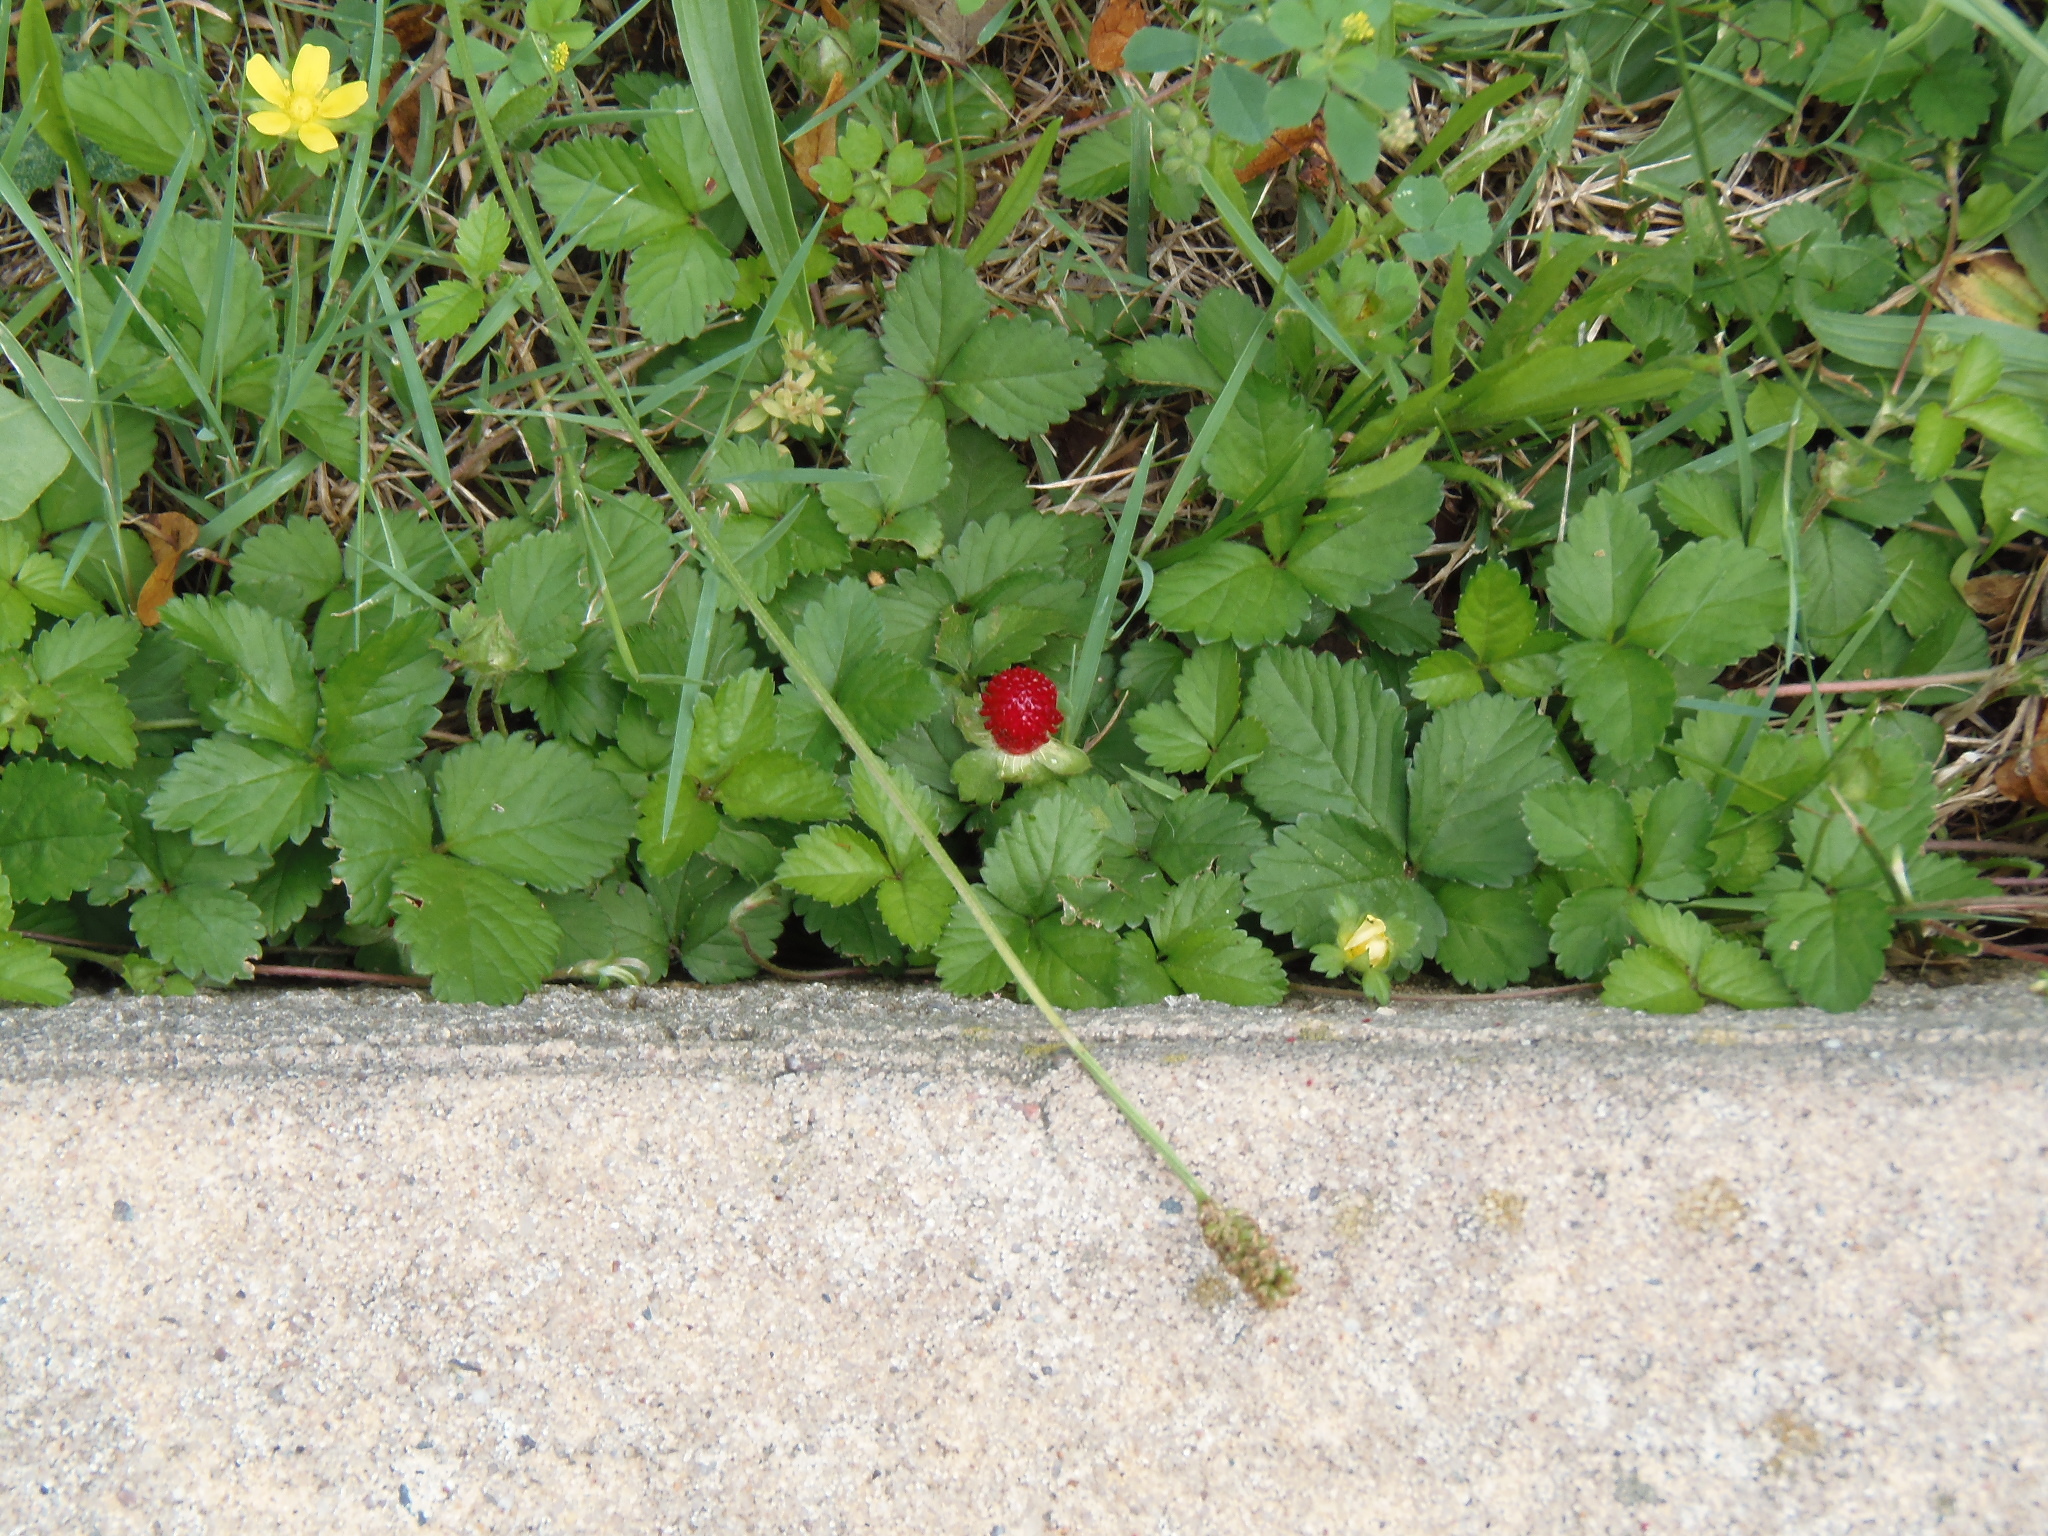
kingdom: Plantae
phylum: Tracheophyta
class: Magnoliopsida
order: Rosales
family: Rosaceae
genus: Potentilla
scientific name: Potentilla indica
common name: Yellow-flowered strawberry
